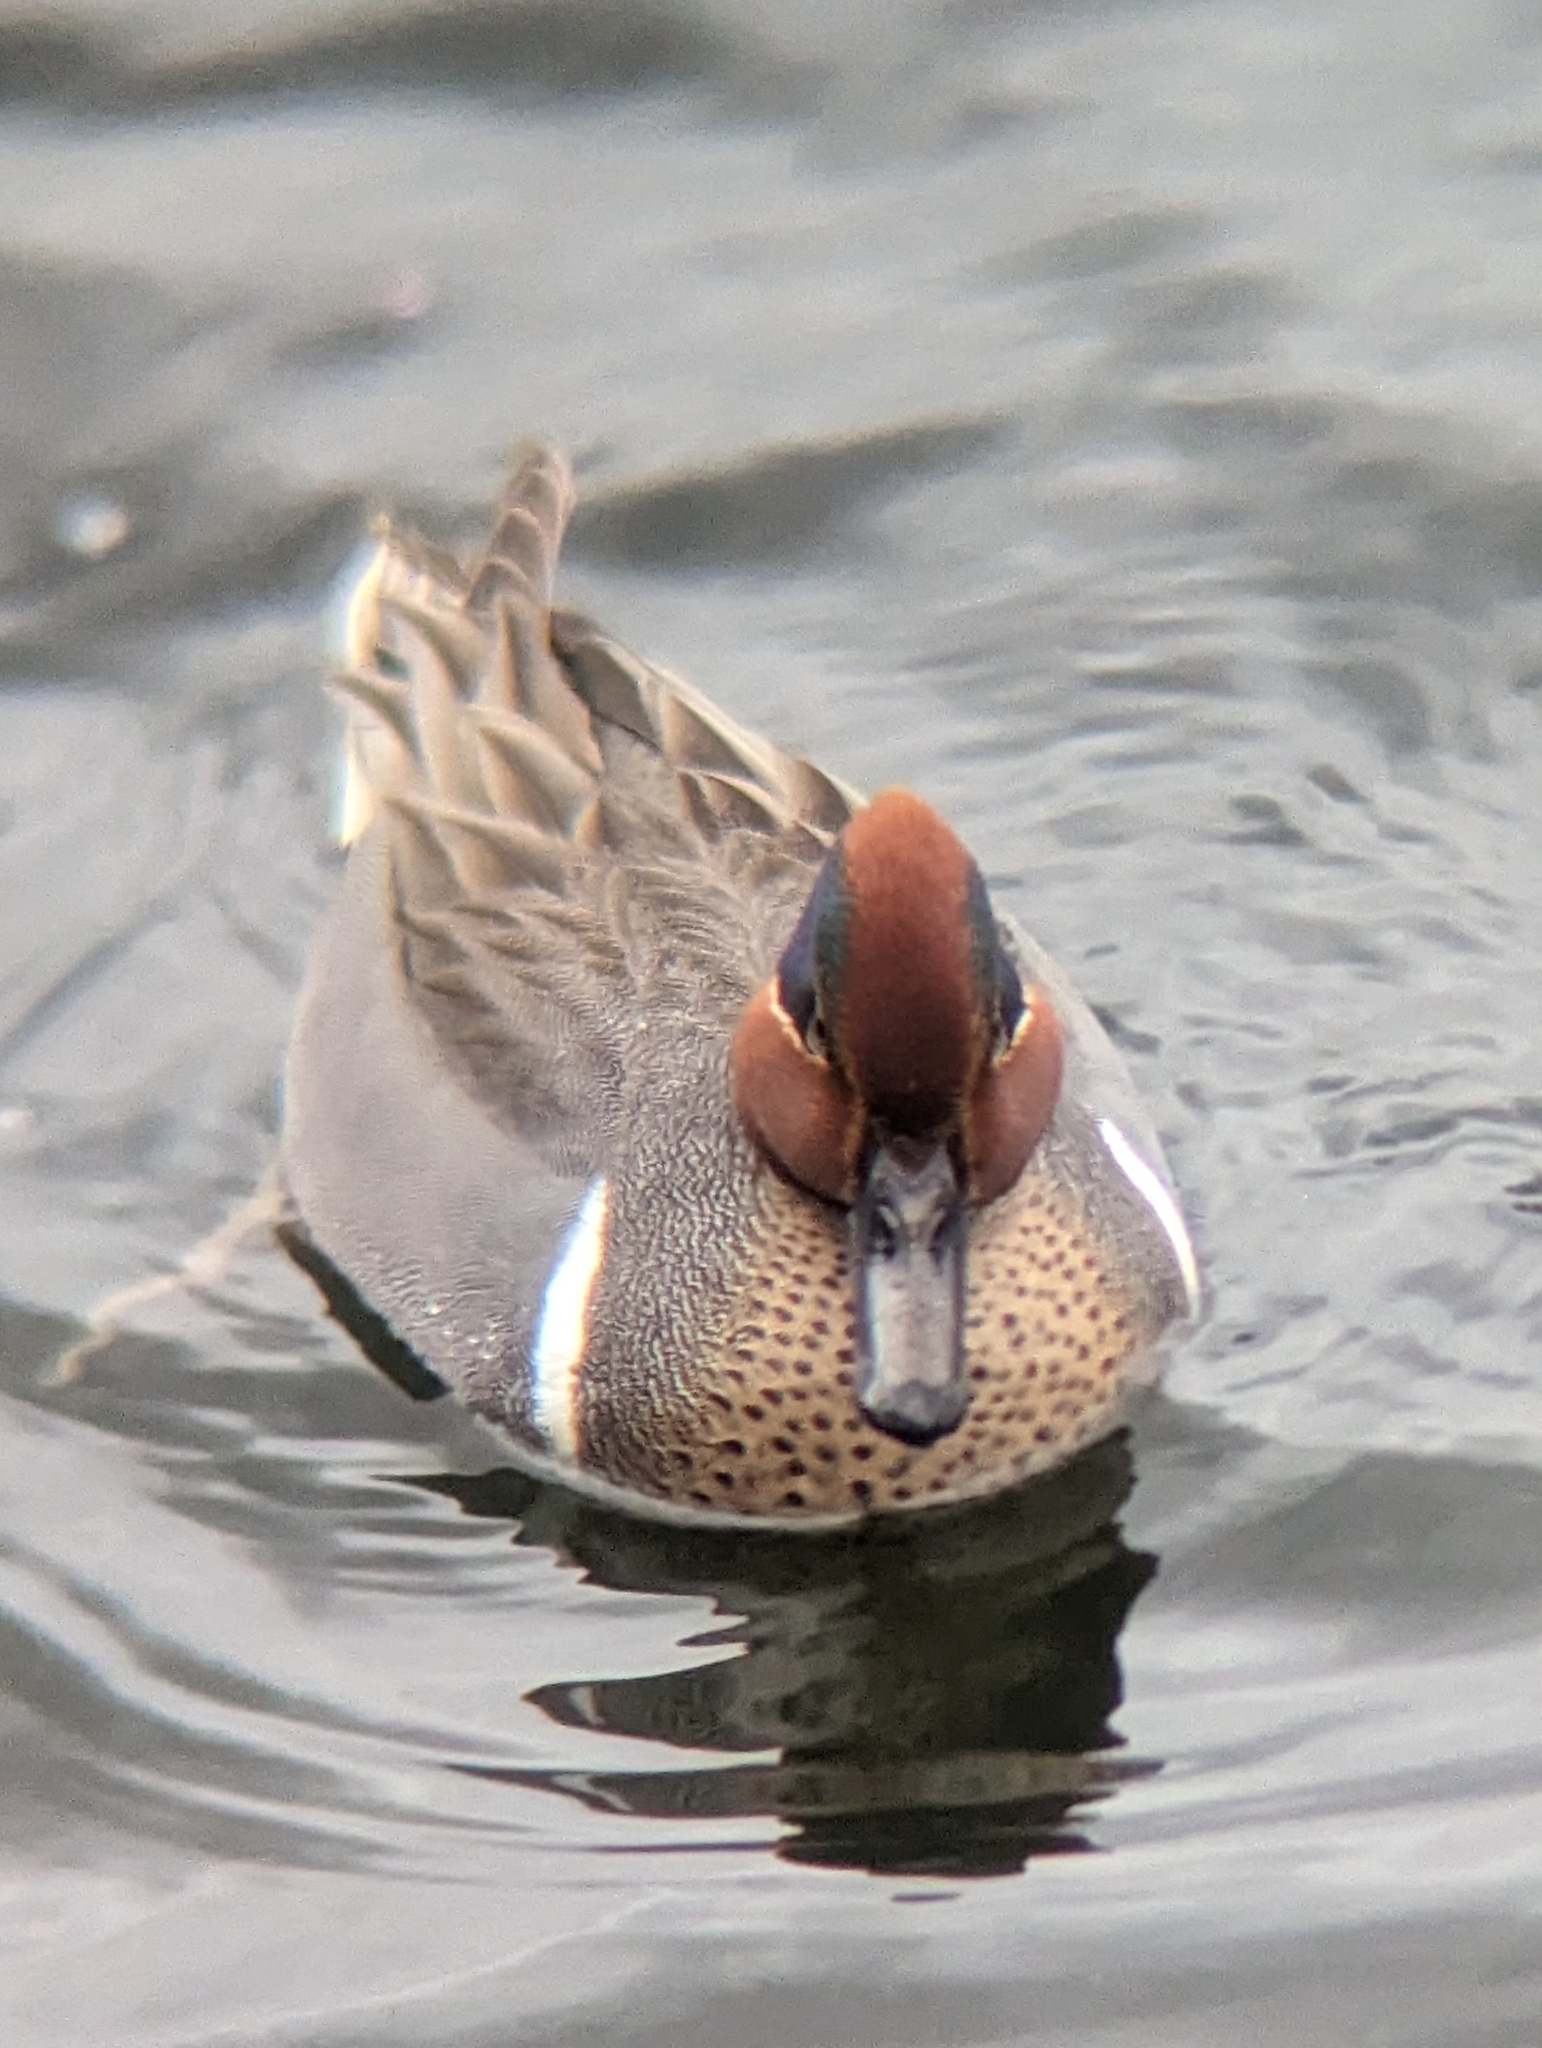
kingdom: Animalia
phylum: Chordata
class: Aves
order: Anseriformes
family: Anatidae
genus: Anas
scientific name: Anas carolinensis
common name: Green-winged teal
